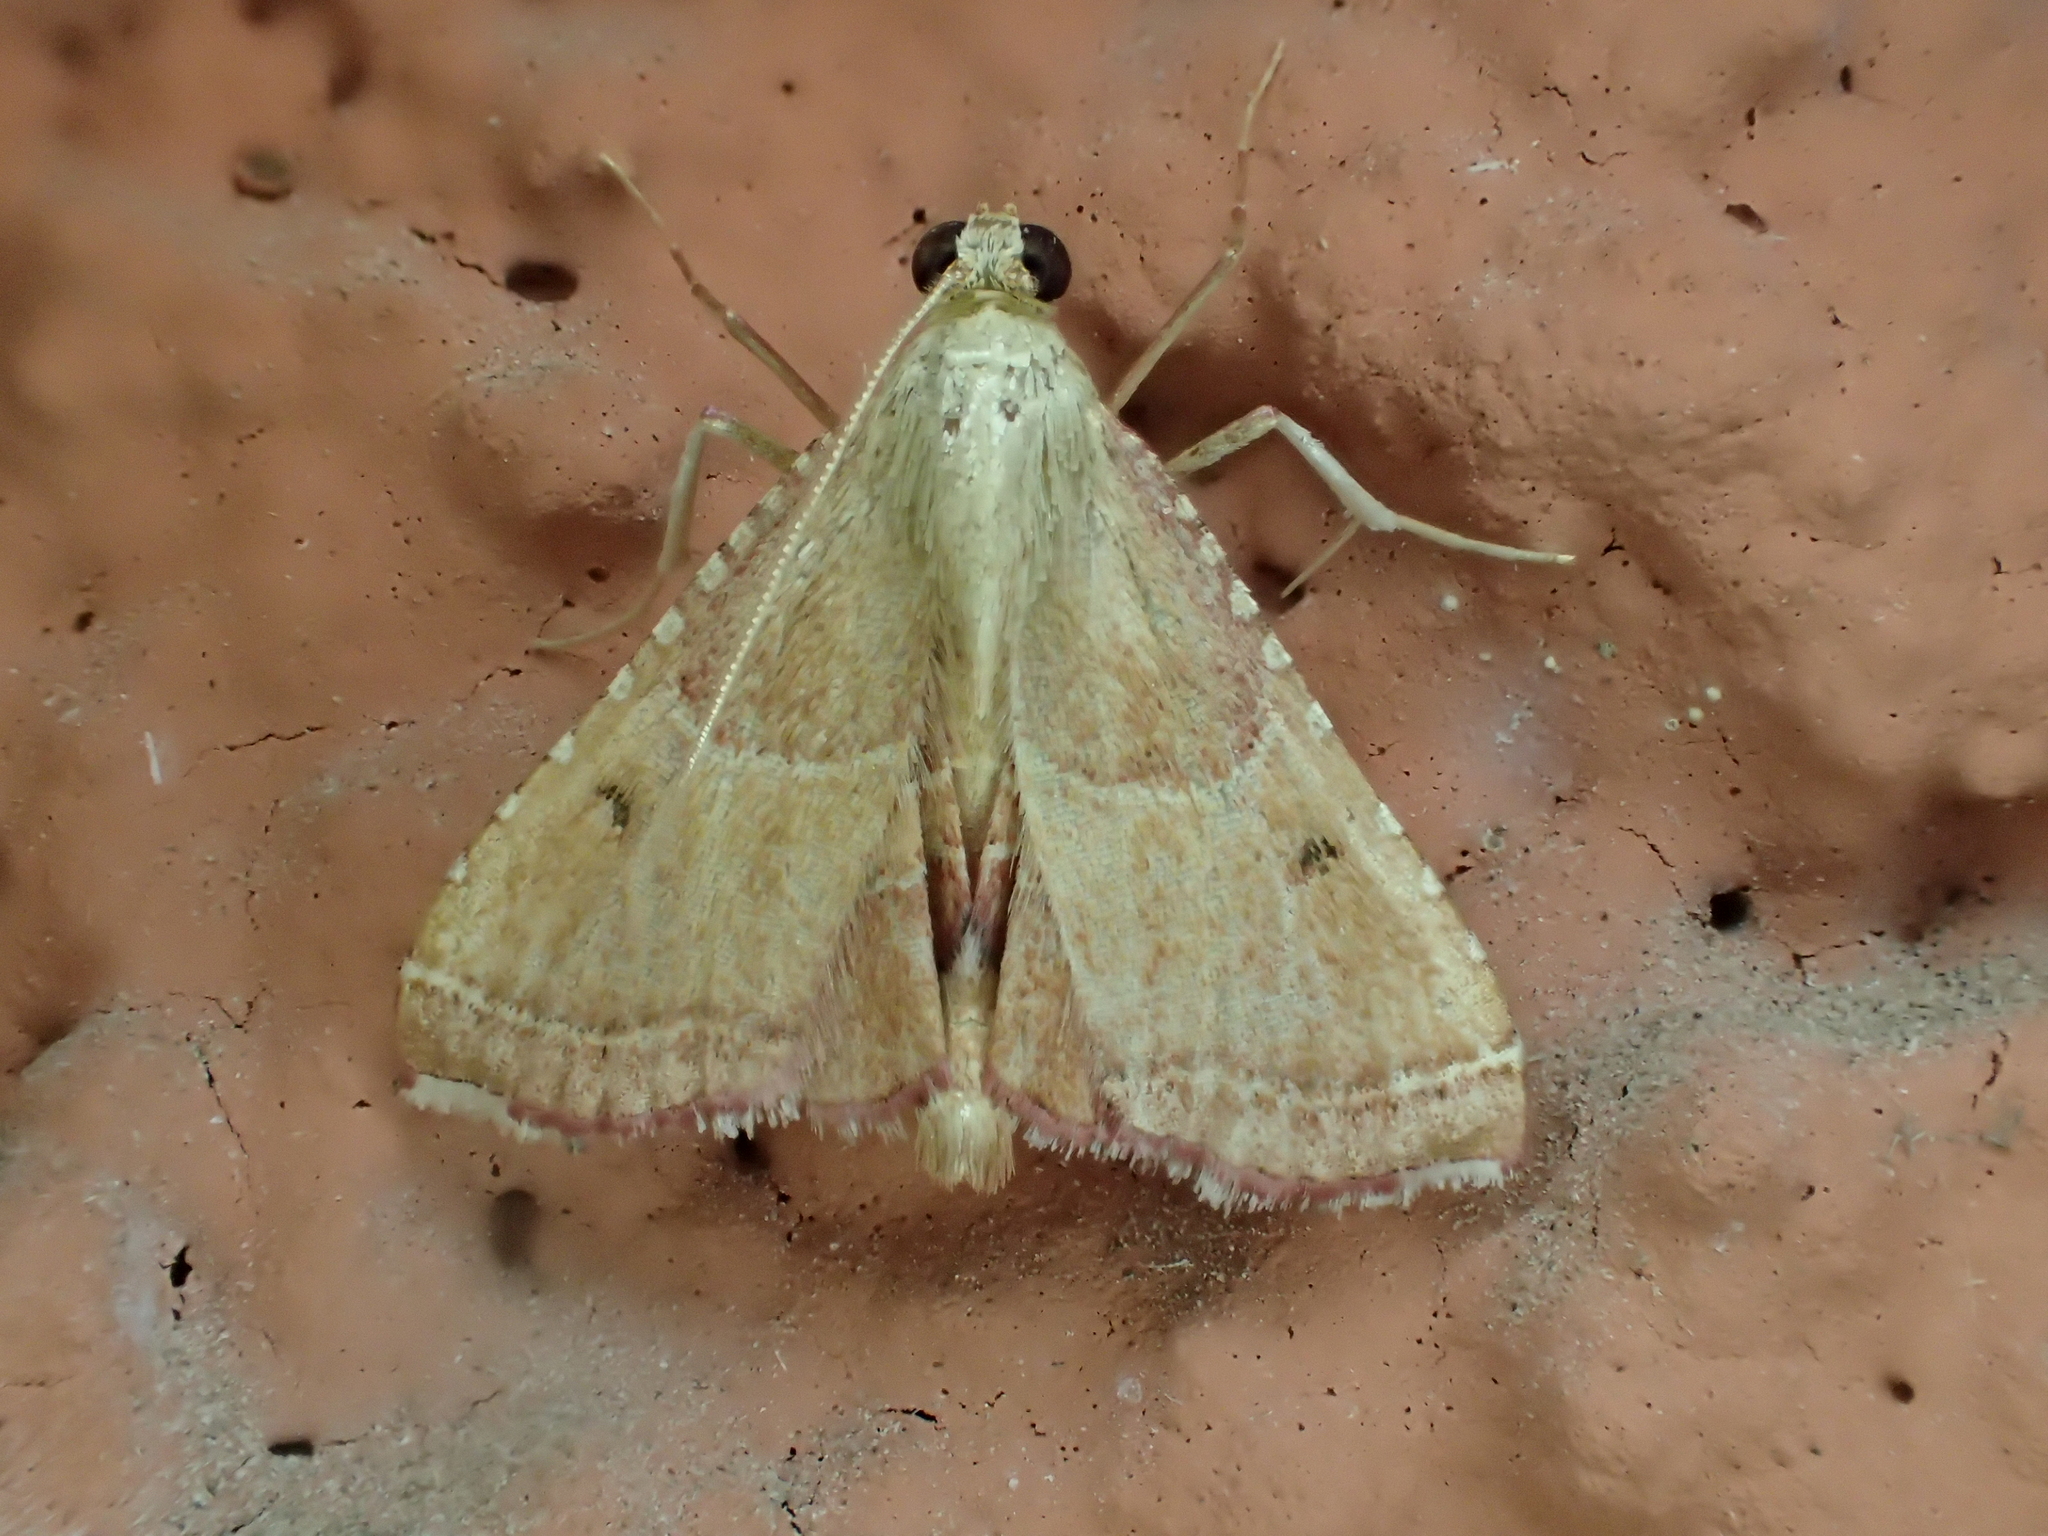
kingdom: Animalia
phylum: Arthropoda
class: Insecta
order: Lepidoptera
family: Pyralidae
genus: Endotricha
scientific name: Endotricha flammealis
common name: Rosy tabby
